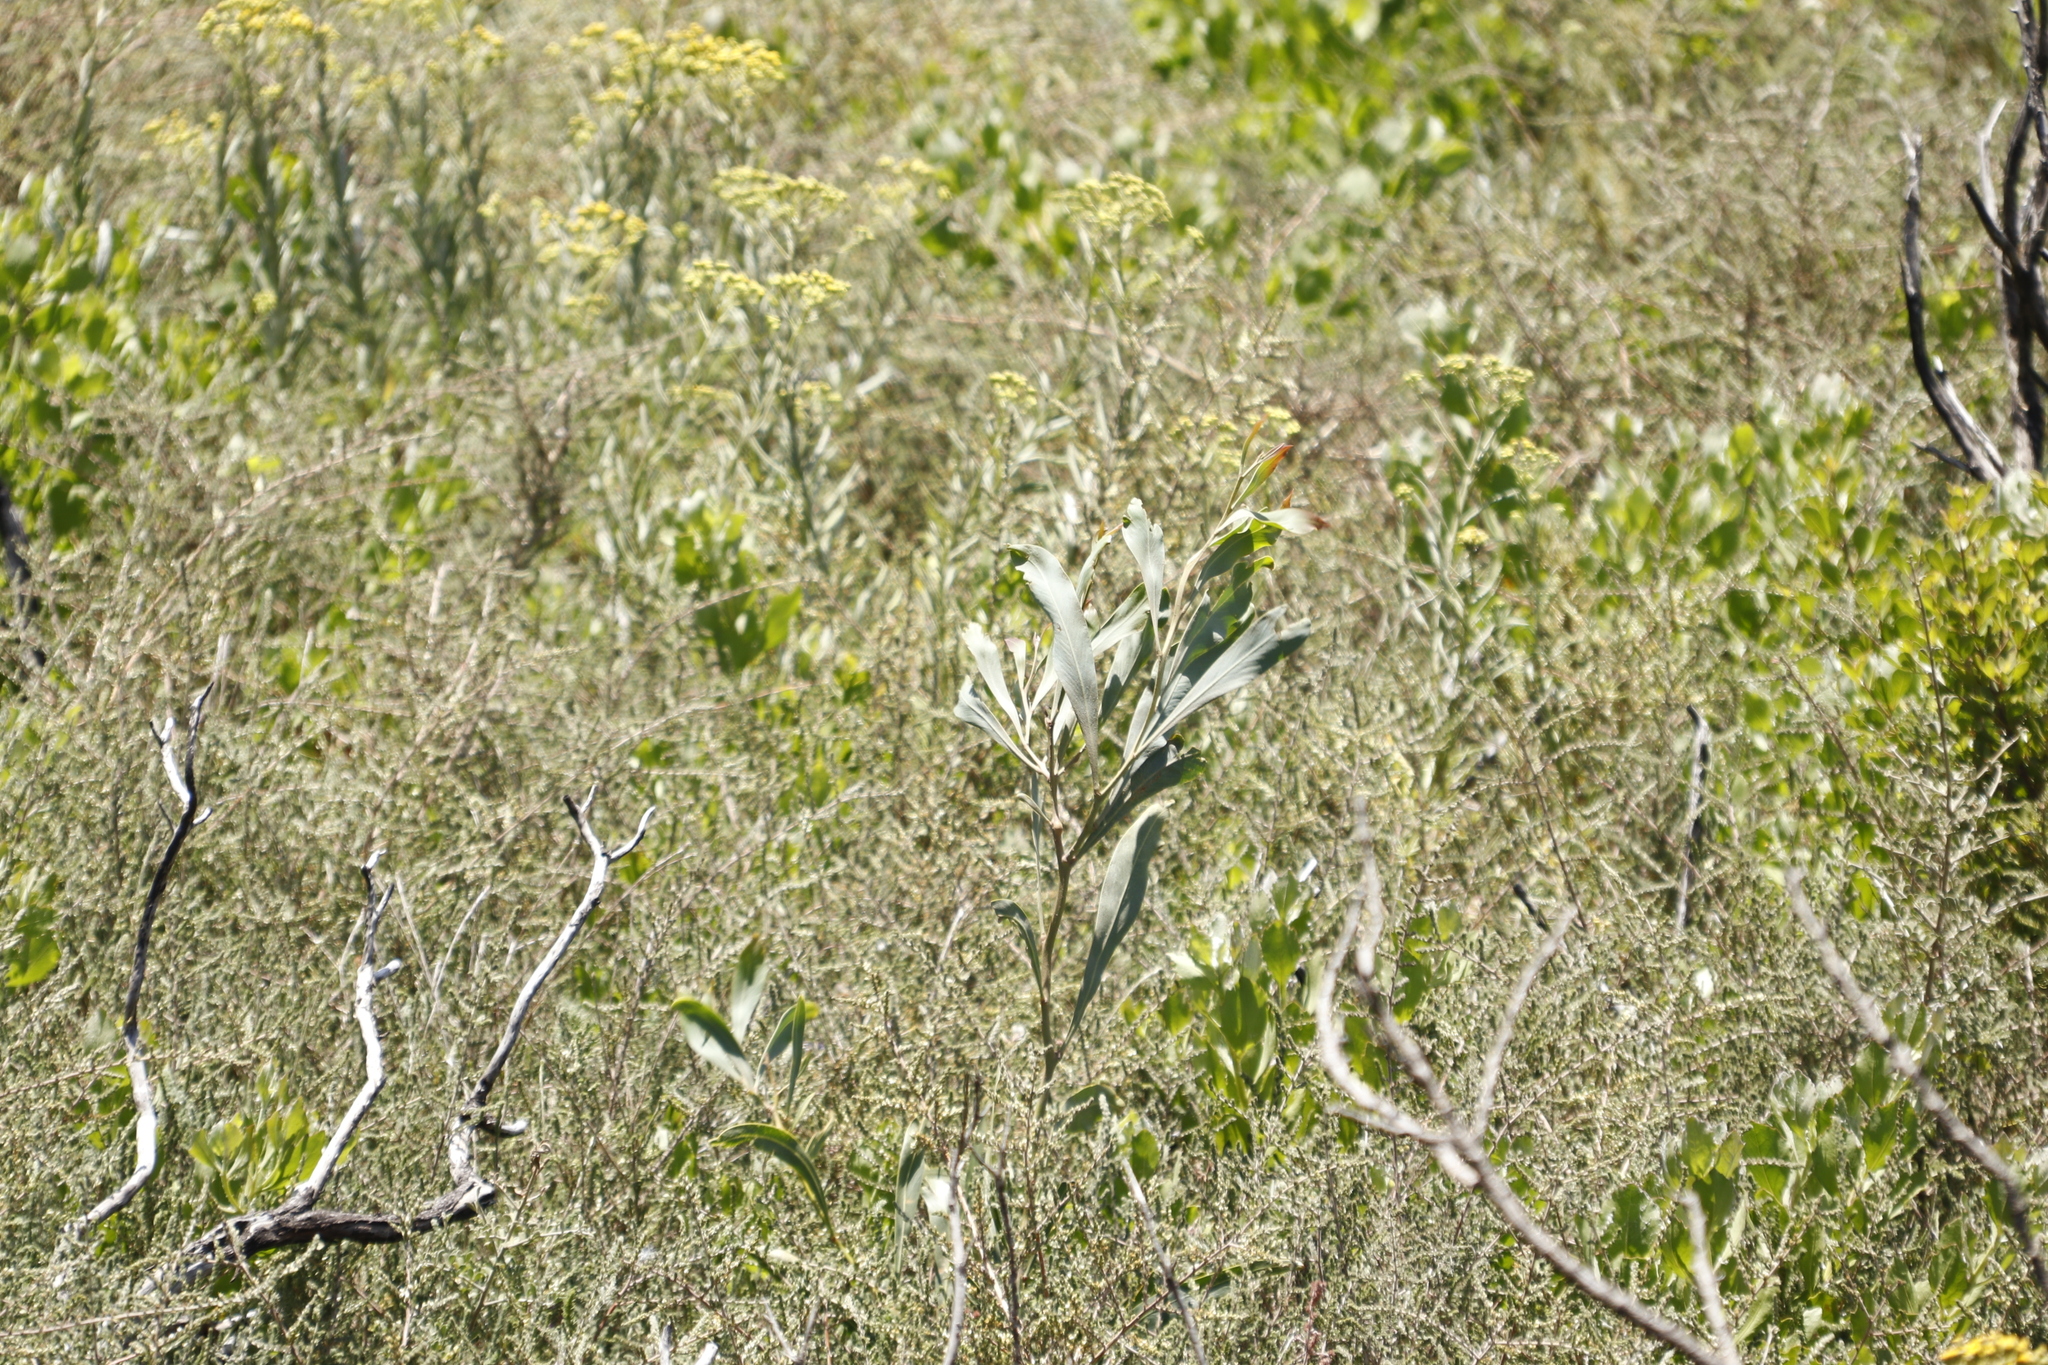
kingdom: Plantae
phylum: Tracheophyta
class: Magnoliopsida
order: Fabales
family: Fabaceae
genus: Acacia
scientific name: Acacia saligna
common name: Orange wattle
